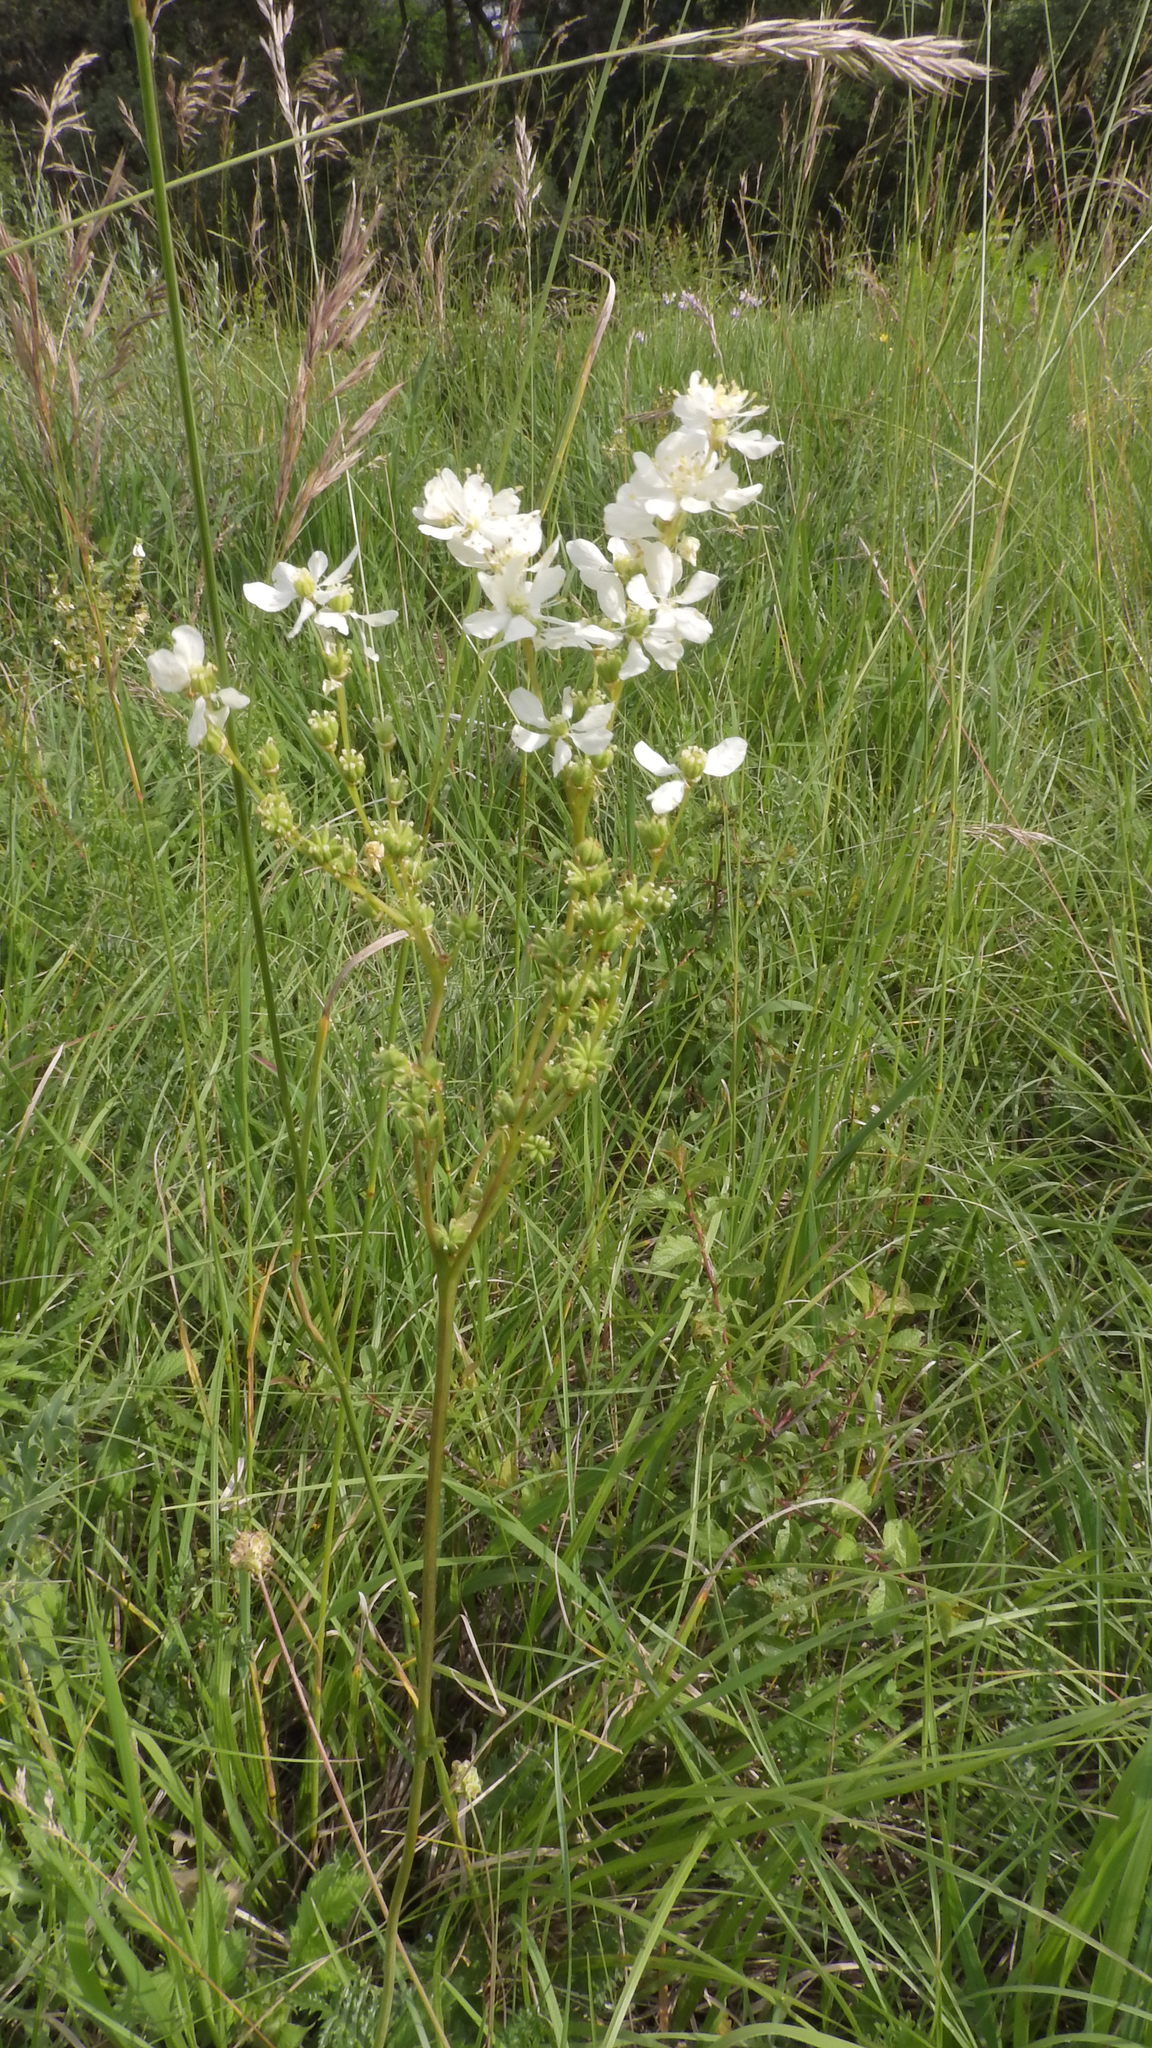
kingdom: Plantae
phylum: Tracheophyta
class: Magnoliopsida
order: Rosales
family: Rosaceae
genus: Filipendula
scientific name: Filipendula vulgaris
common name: Dropwort
